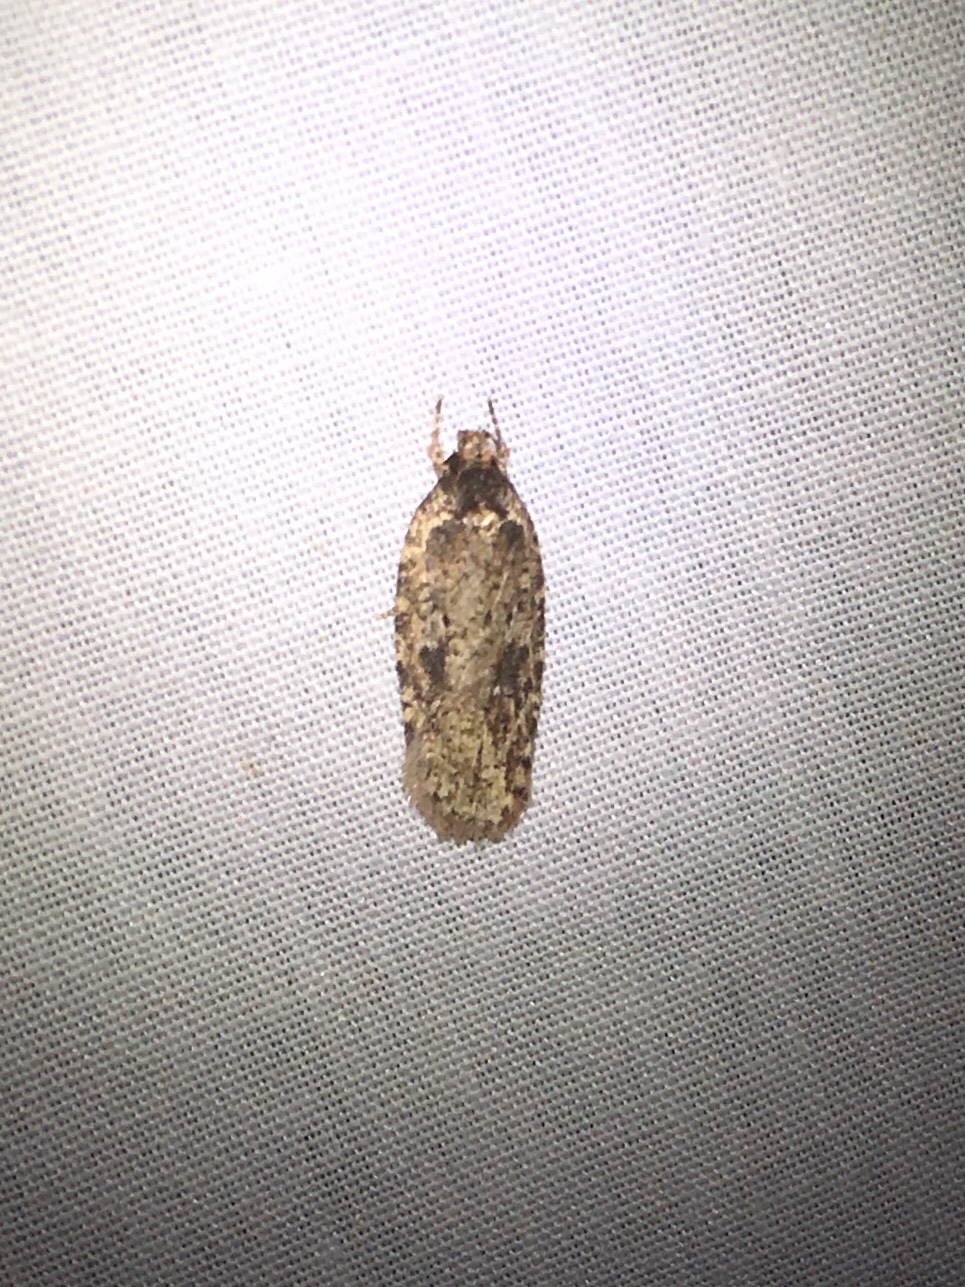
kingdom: Animalia
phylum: Arthropoda
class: Insecta
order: Lepidoptera
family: Depressariidae
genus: Agonopterix
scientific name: Agonopterix pulvipennella
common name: Goldenrod leafffolder
